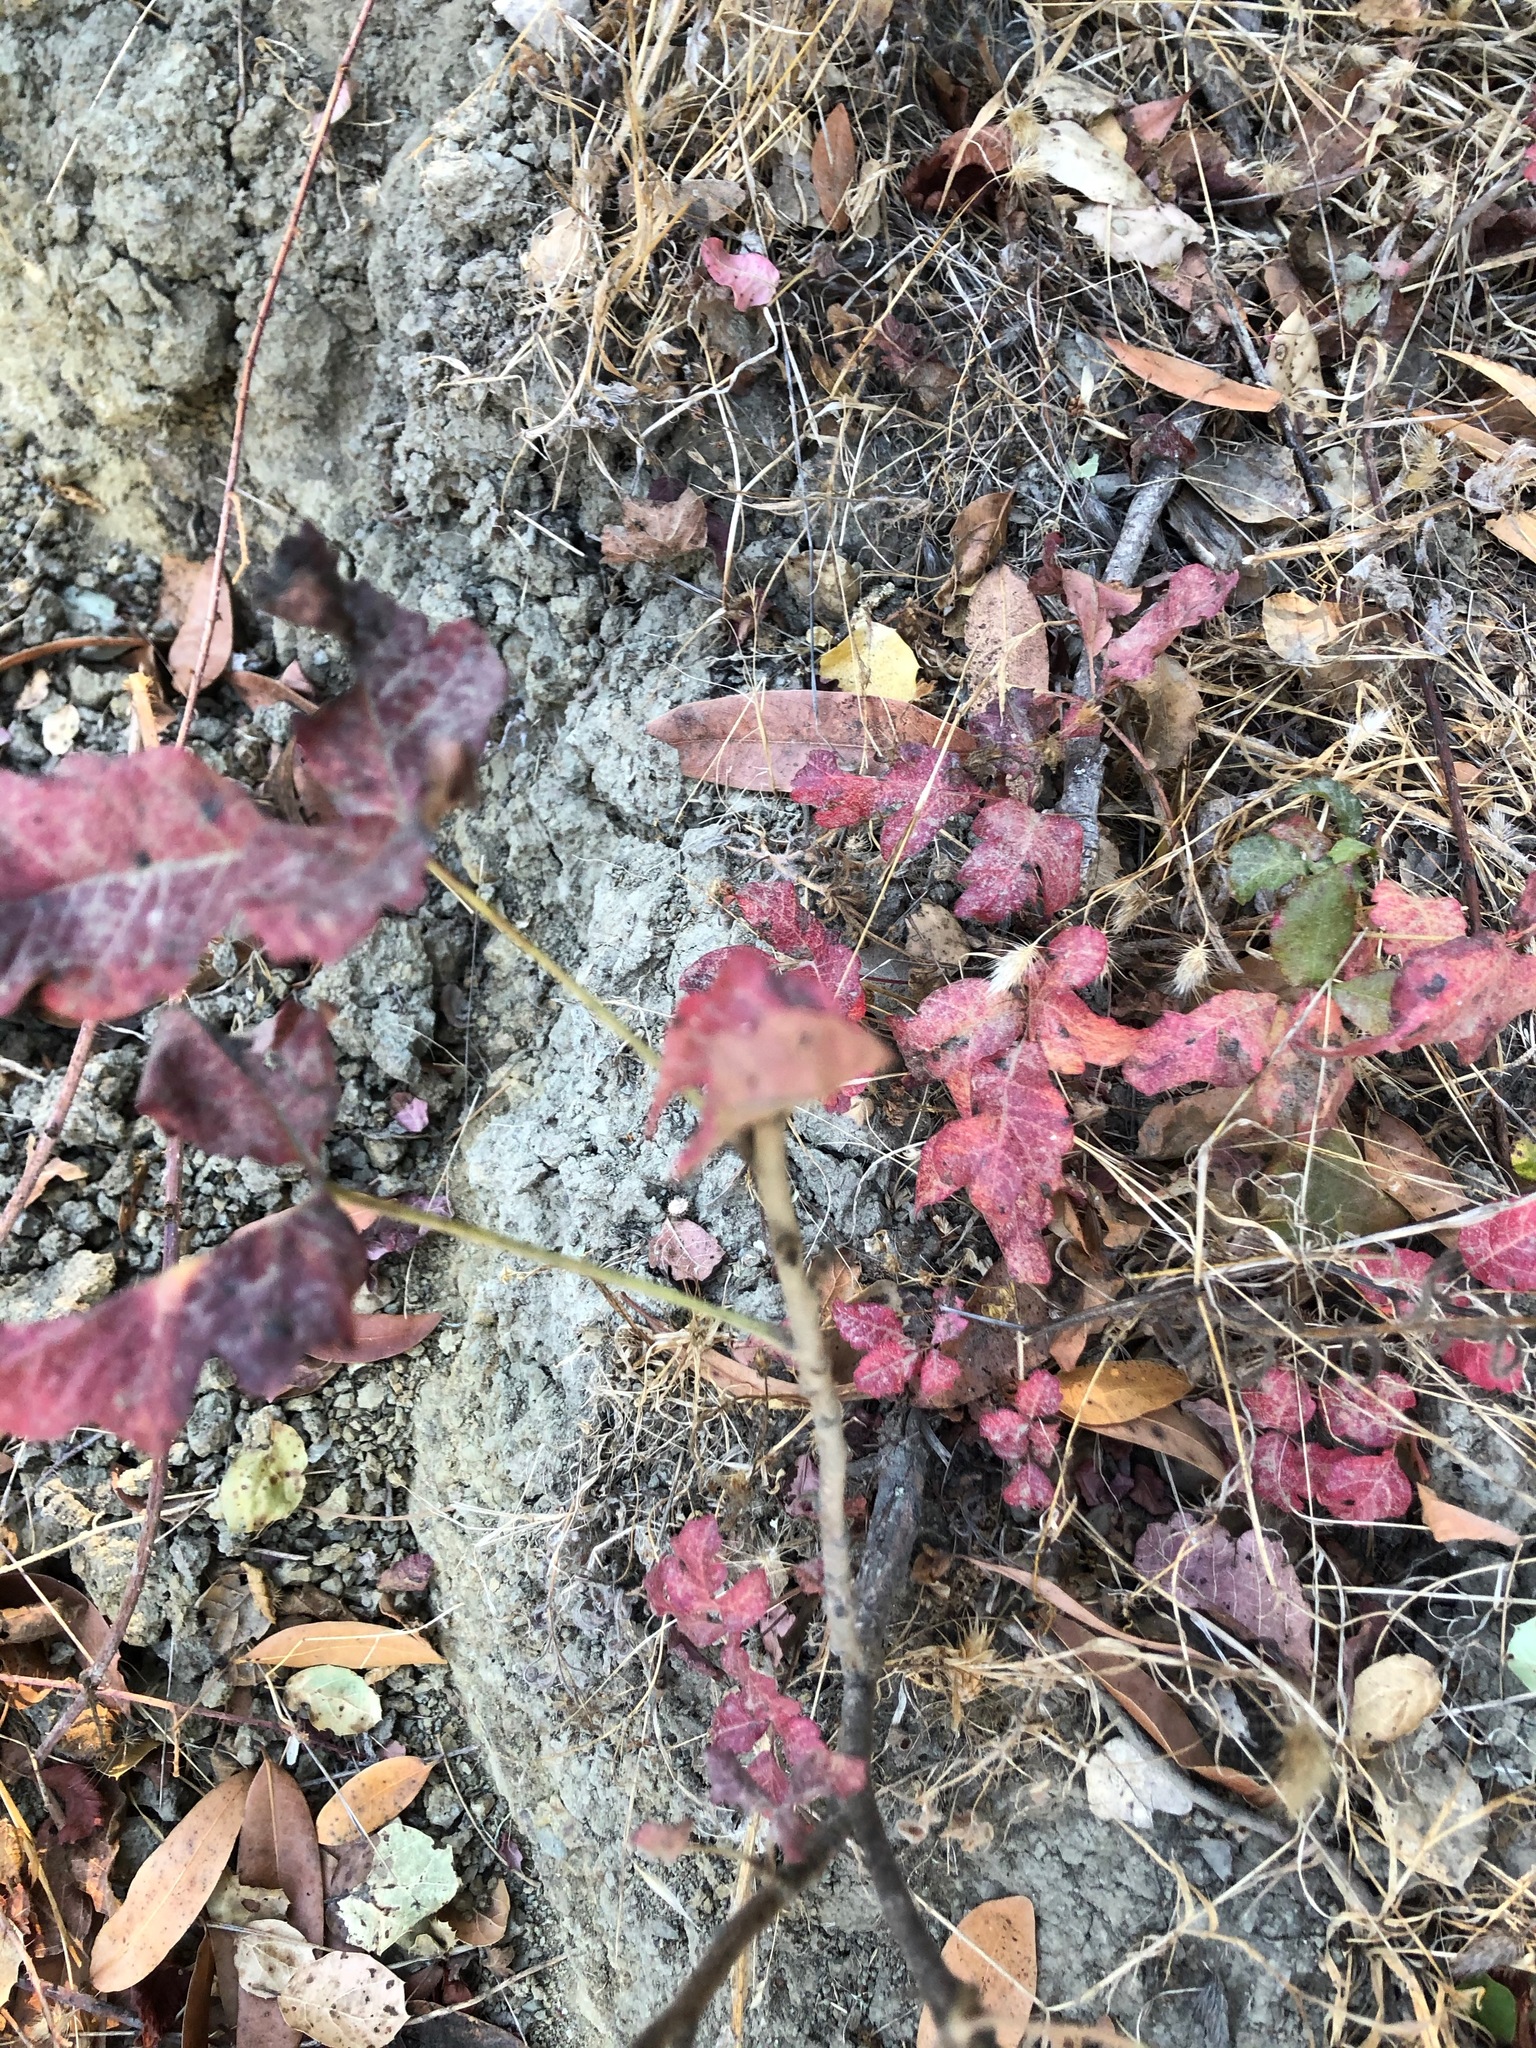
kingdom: Plantae
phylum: Tracheophyta
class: Magnoliopsida
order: Sapindales
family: Anacardiaceae
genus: Toxicodendron
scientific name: Toxicodendron diversilobum
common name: Pacific poison-oak
